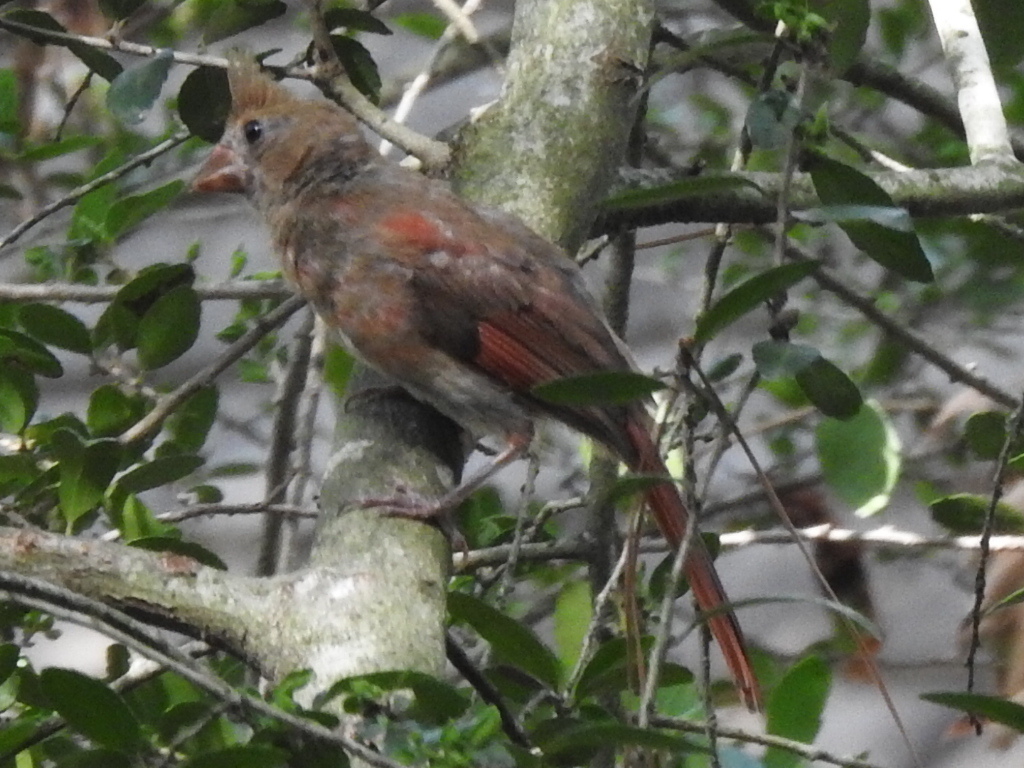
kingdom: Animalia
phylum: Chordata
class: Aves
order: Passeriformes
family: Cardinalidae
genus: Cardinalis
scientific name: Cardinalis cardinalis
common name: Northern cardinal
